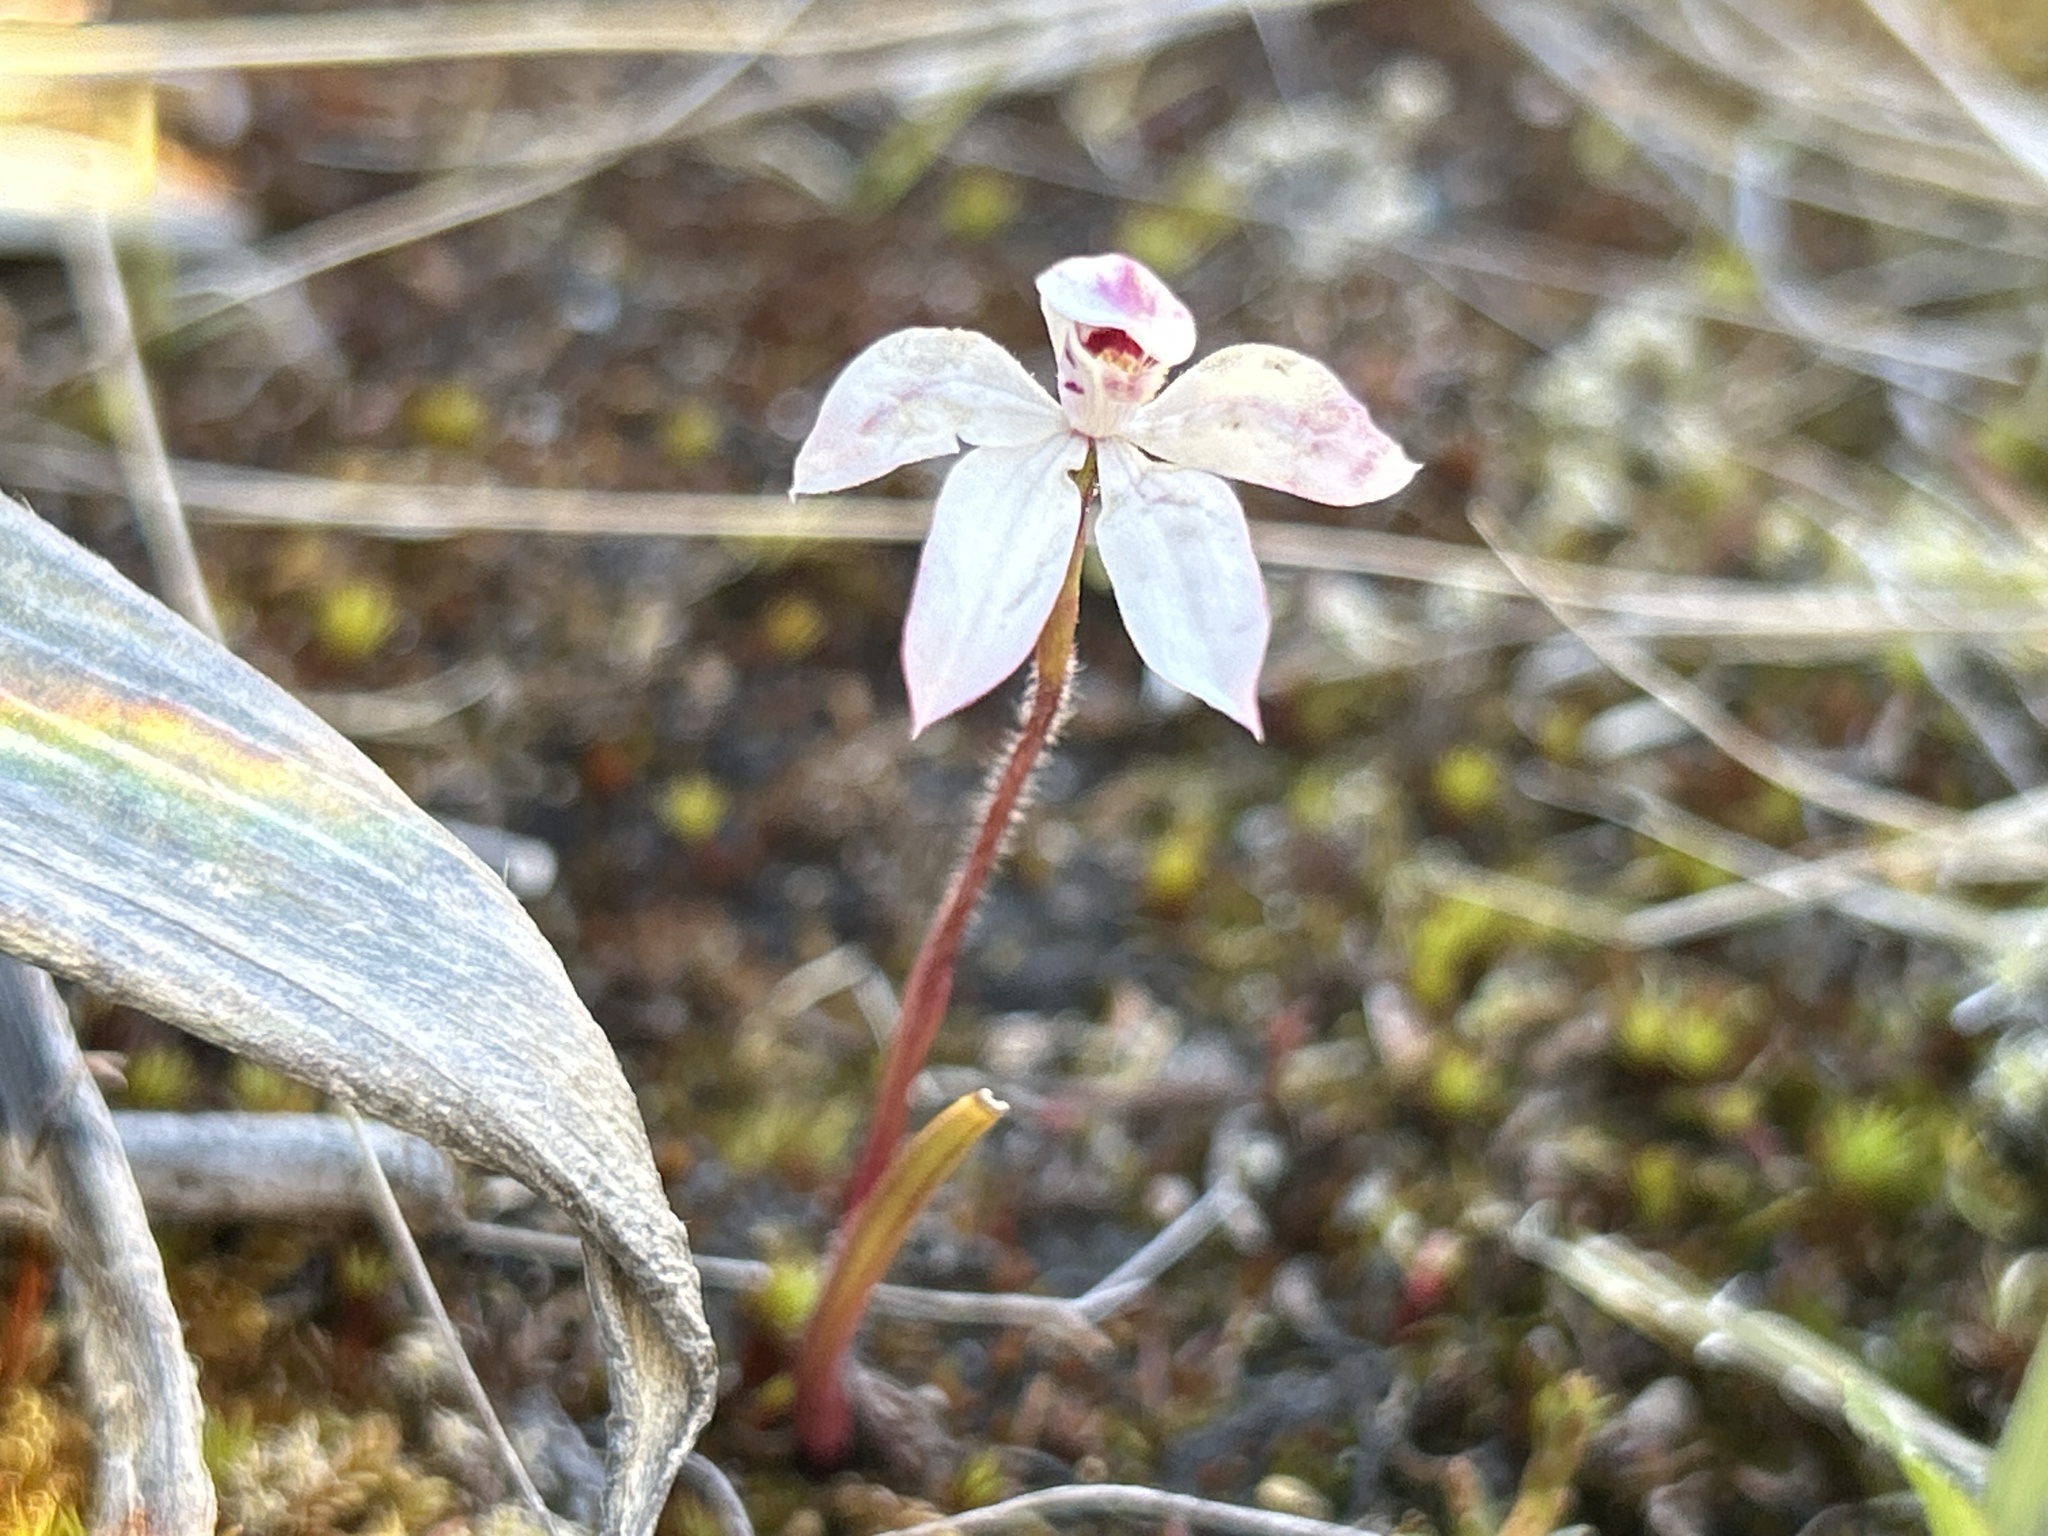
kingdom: Plantae
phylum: Tracheophyta
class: Liliopsida
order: Asparagales
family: Orchidaceae
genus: Caladenia
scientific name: Caladenia lyallii
